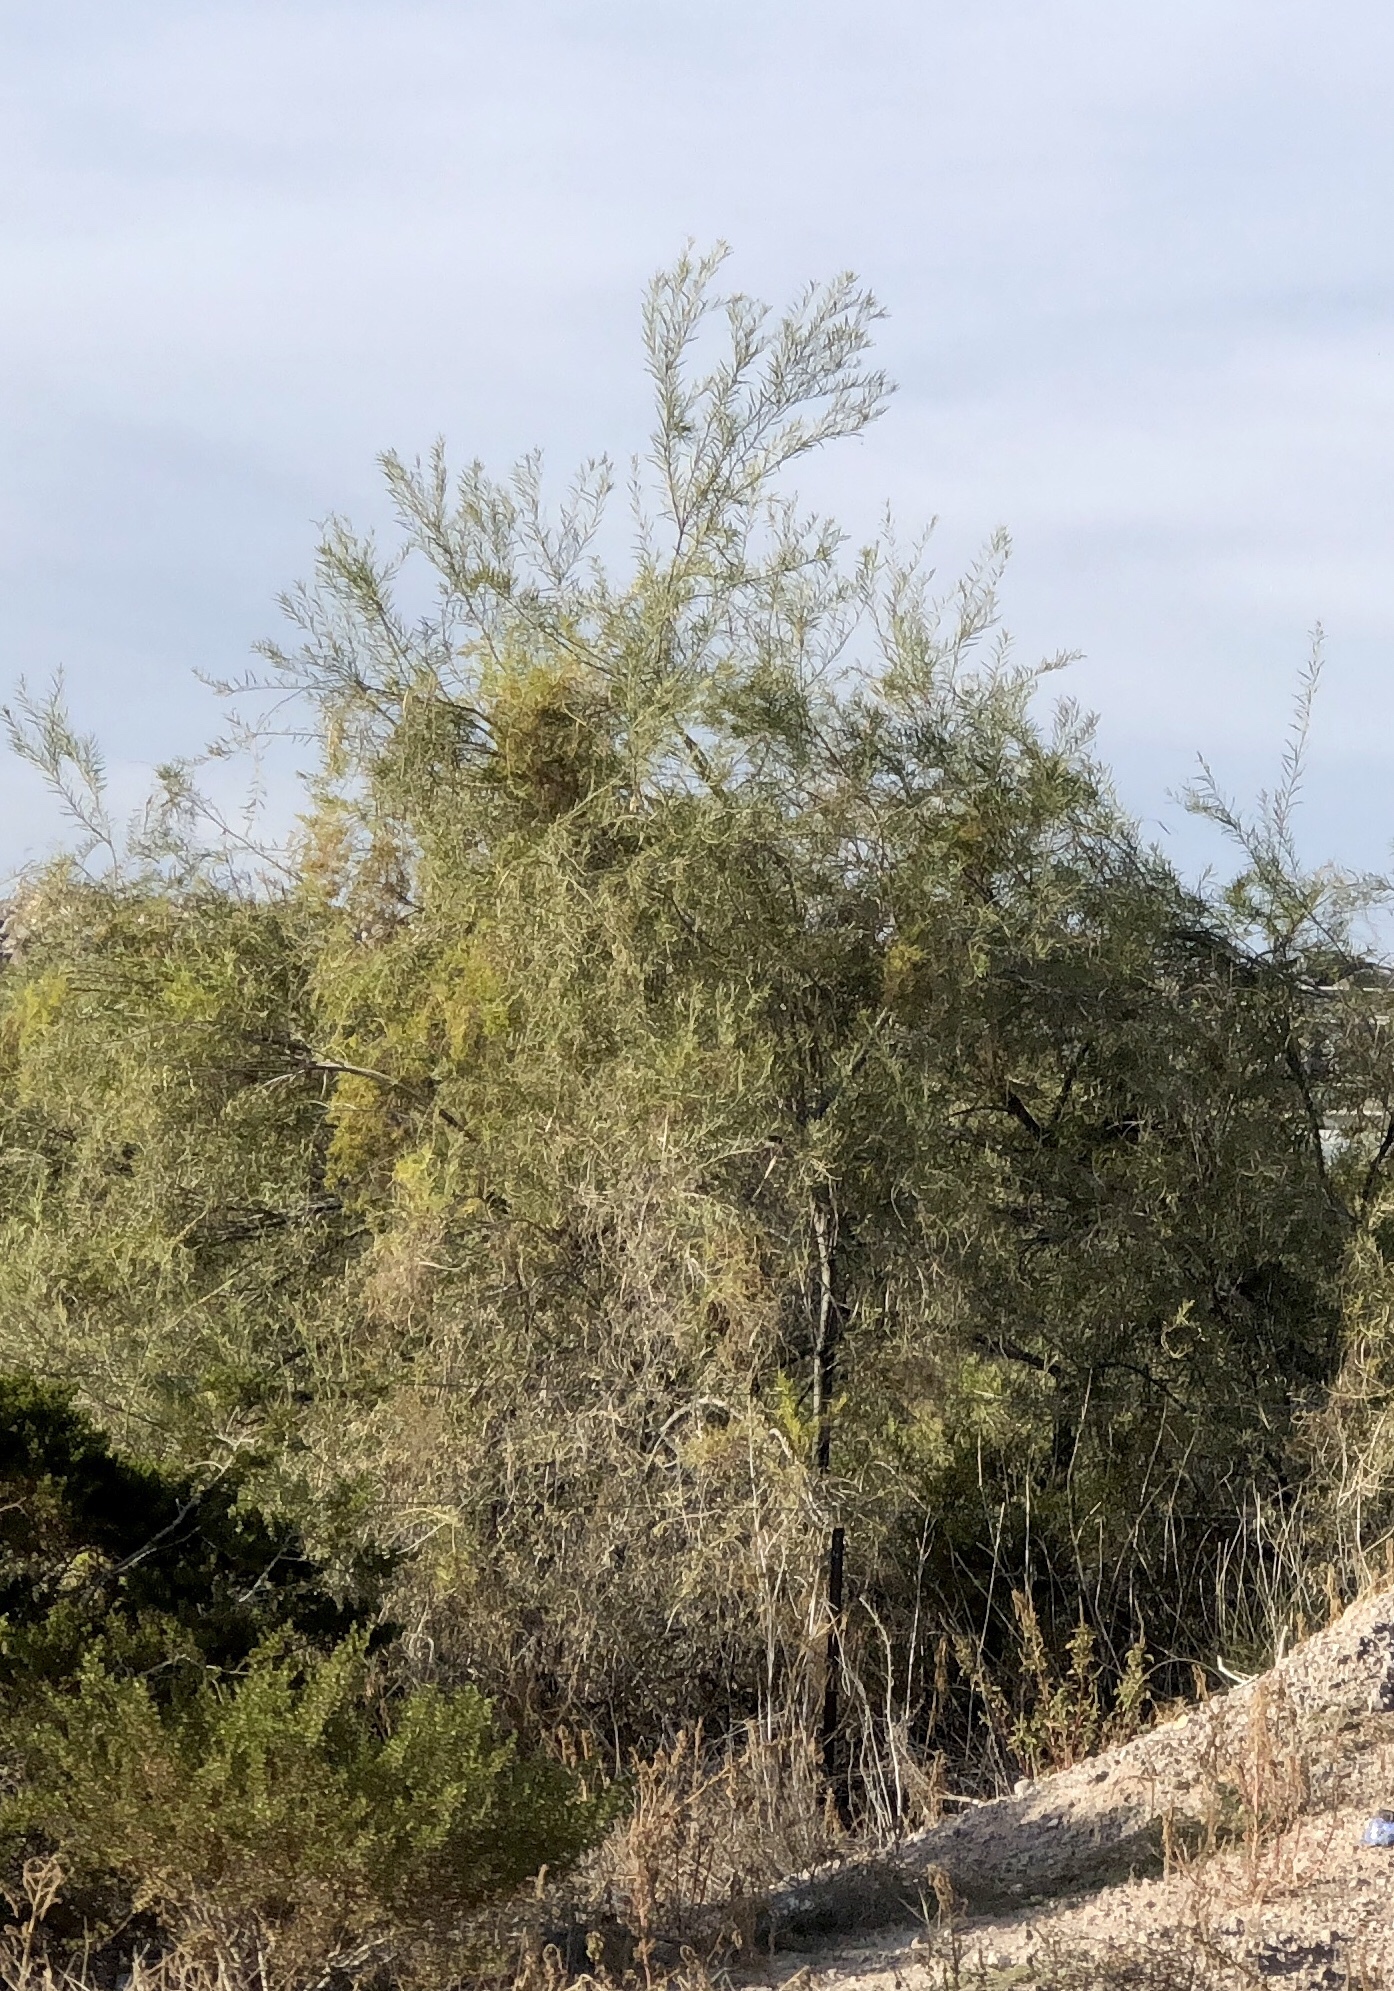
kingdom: Plantae
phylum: Tracheophyta
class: Magnoliopsida
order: Lamiales
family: Bignoniaceae
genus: Chilopsis
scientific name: Chilopsis linearis
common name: Desert-willow
